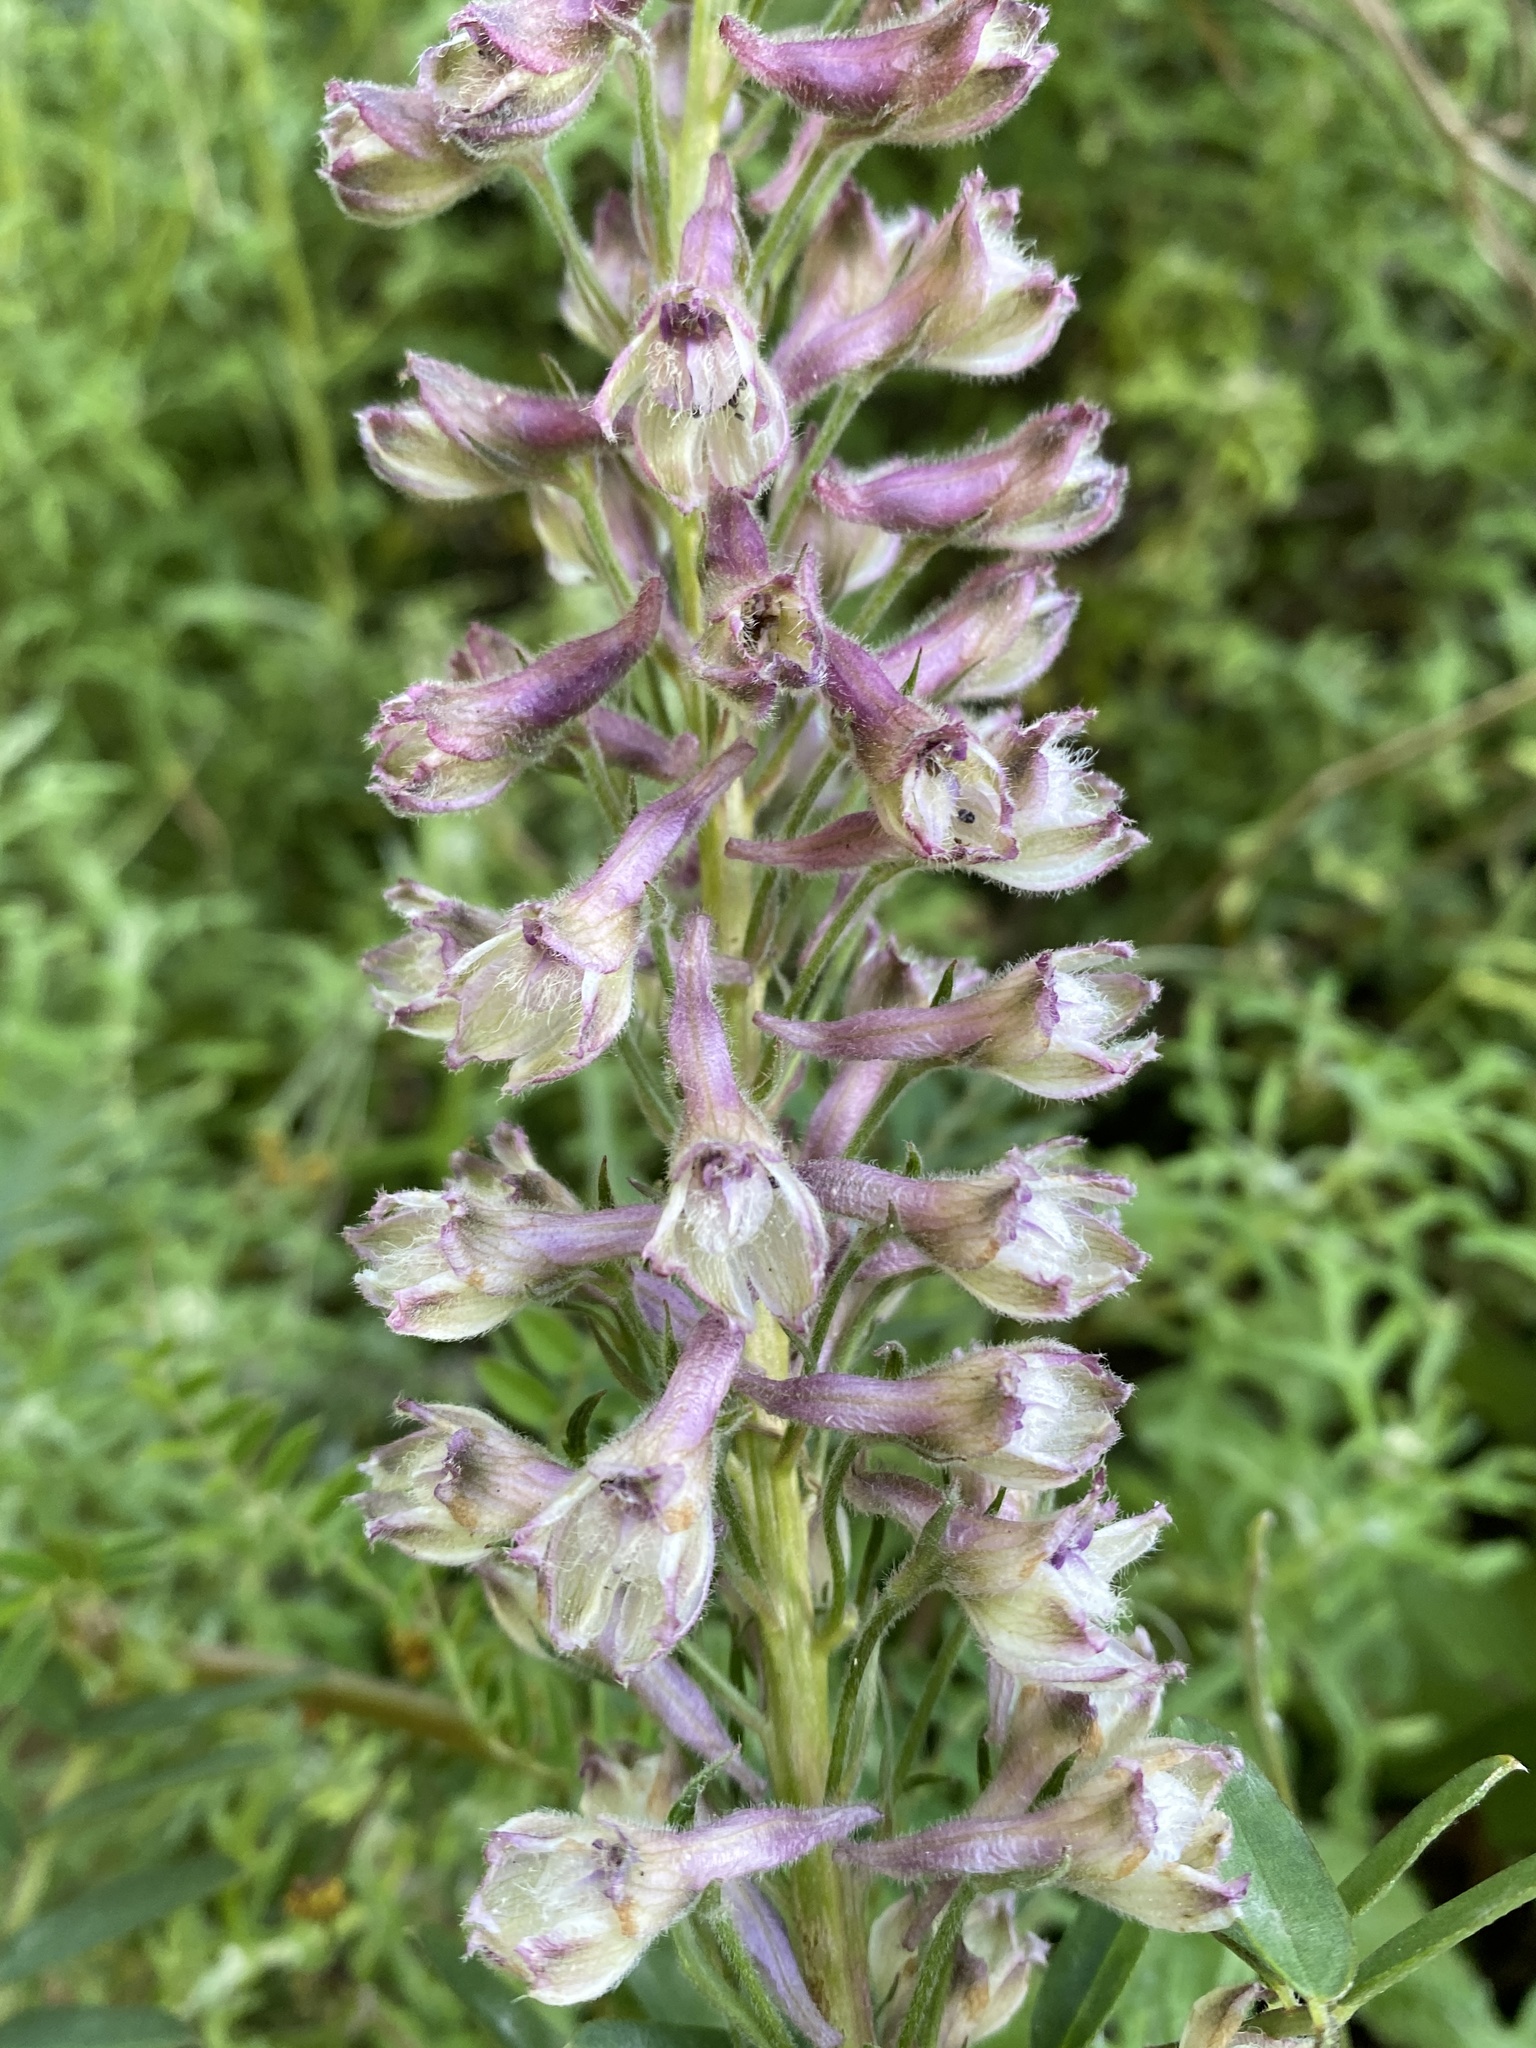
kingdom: Plantae
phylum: Tracheophyta
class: Magnoliopsida
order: Ranunculales
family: Ranunculaceae
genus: Delphinium
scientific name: Delphinium californicum
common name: California larkspur
